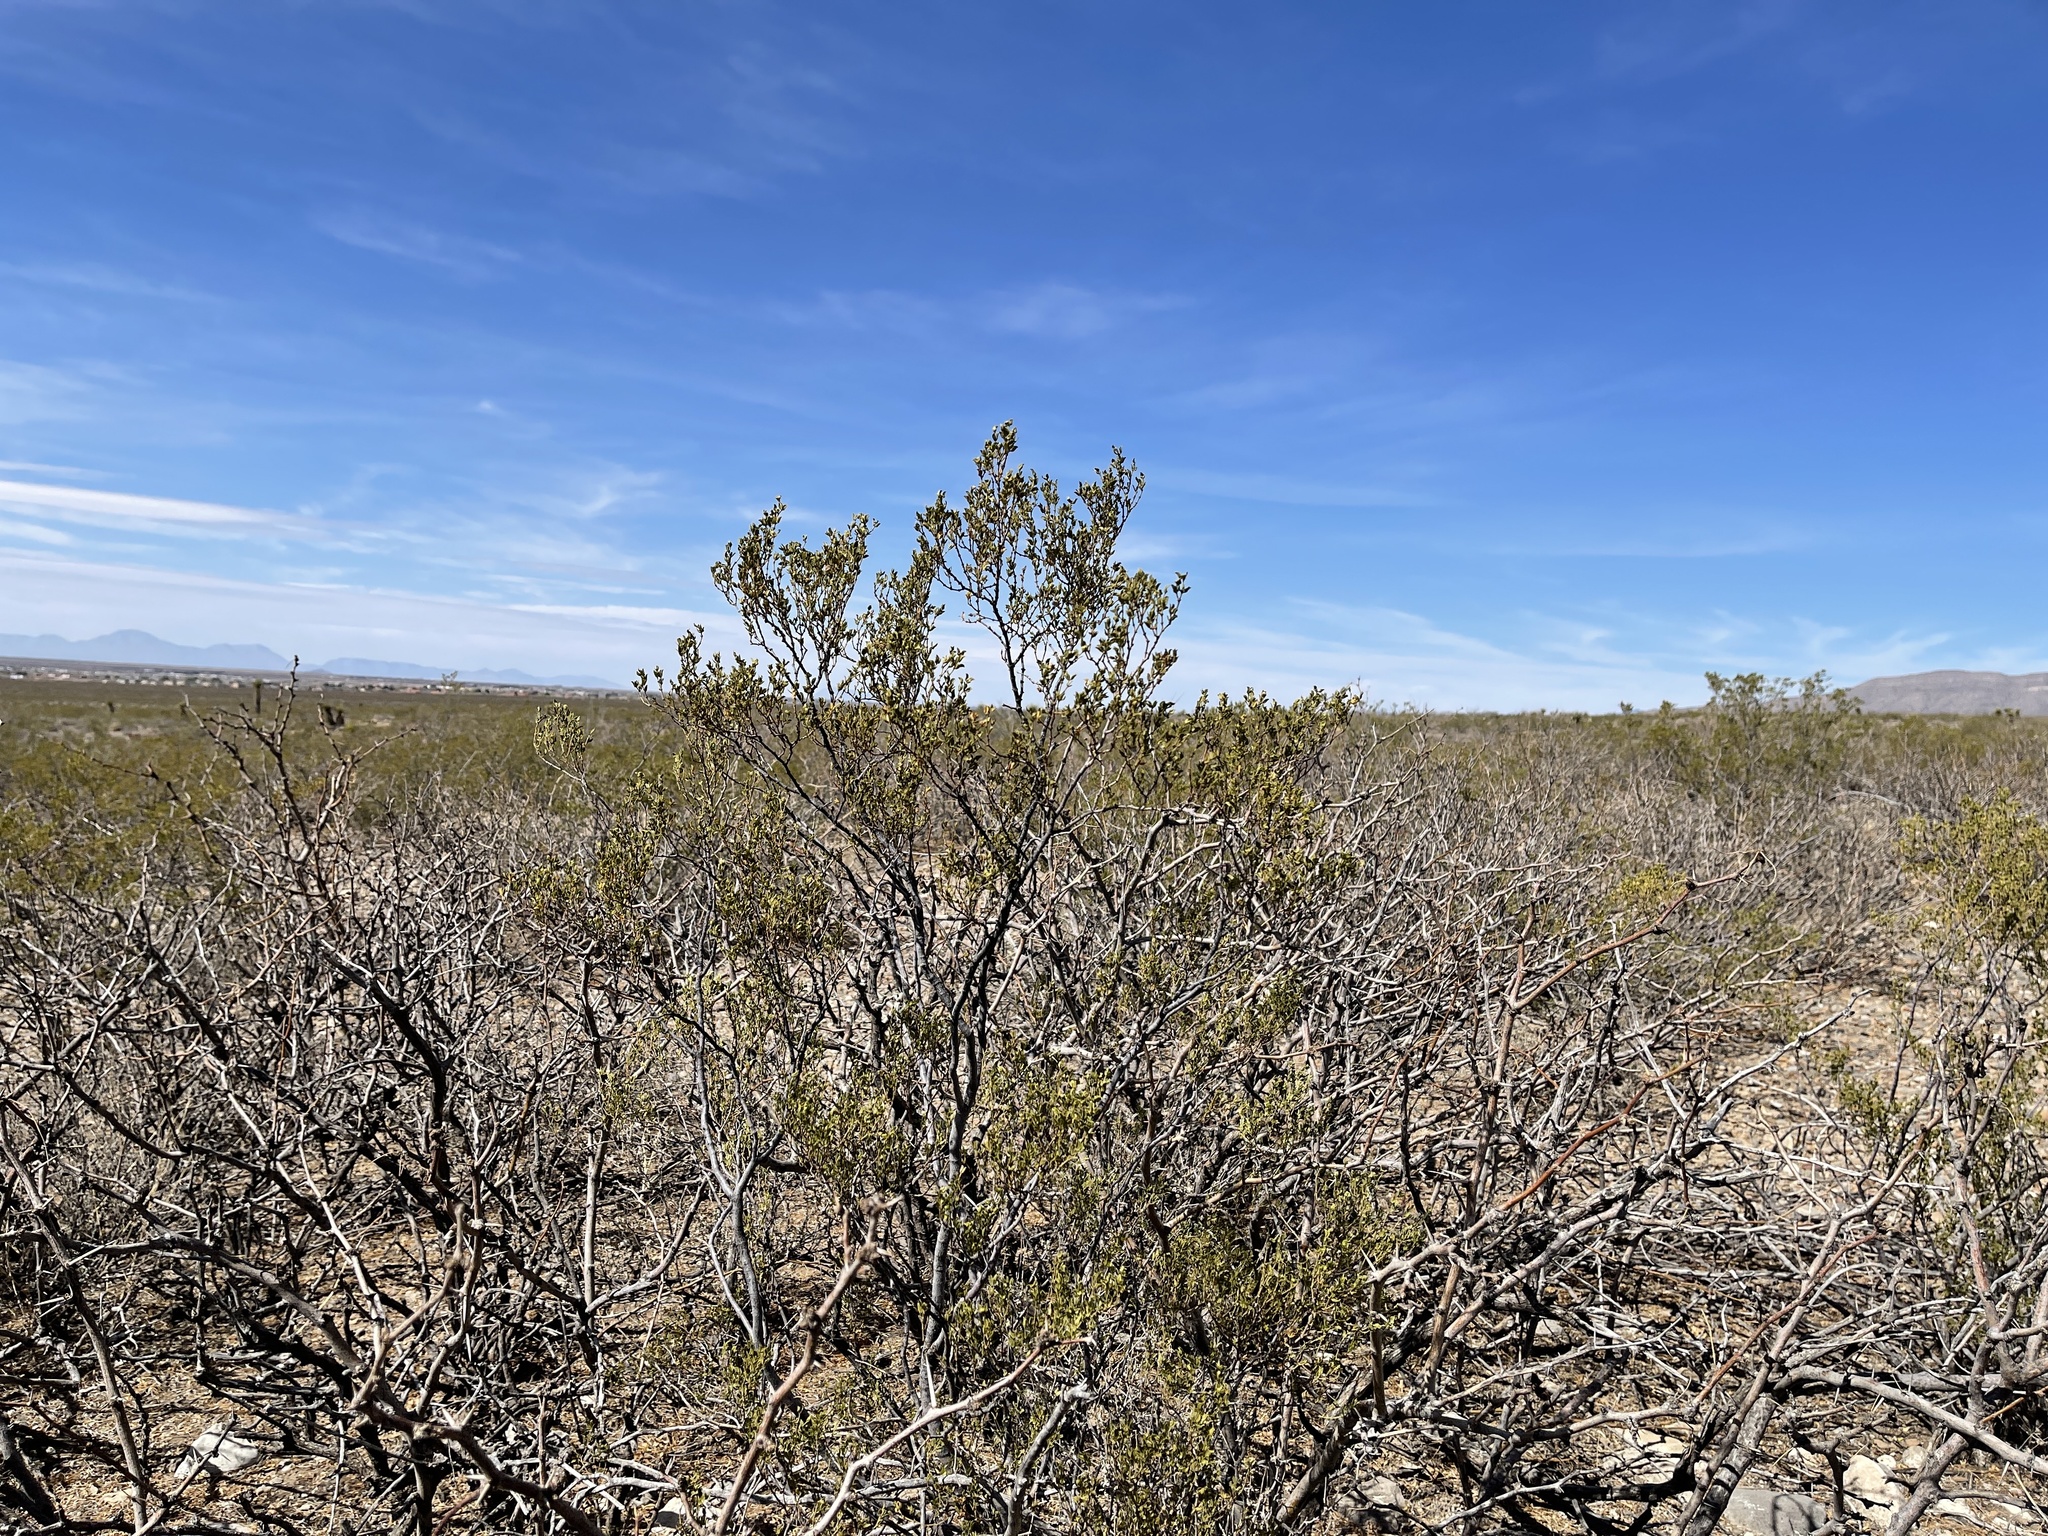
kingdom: Plantae
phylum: Tracheophyta
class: Magnoliopsida
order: Zygophyllales
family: Zygophyllaceae
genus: Larrea
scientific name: Larrea tridentata
